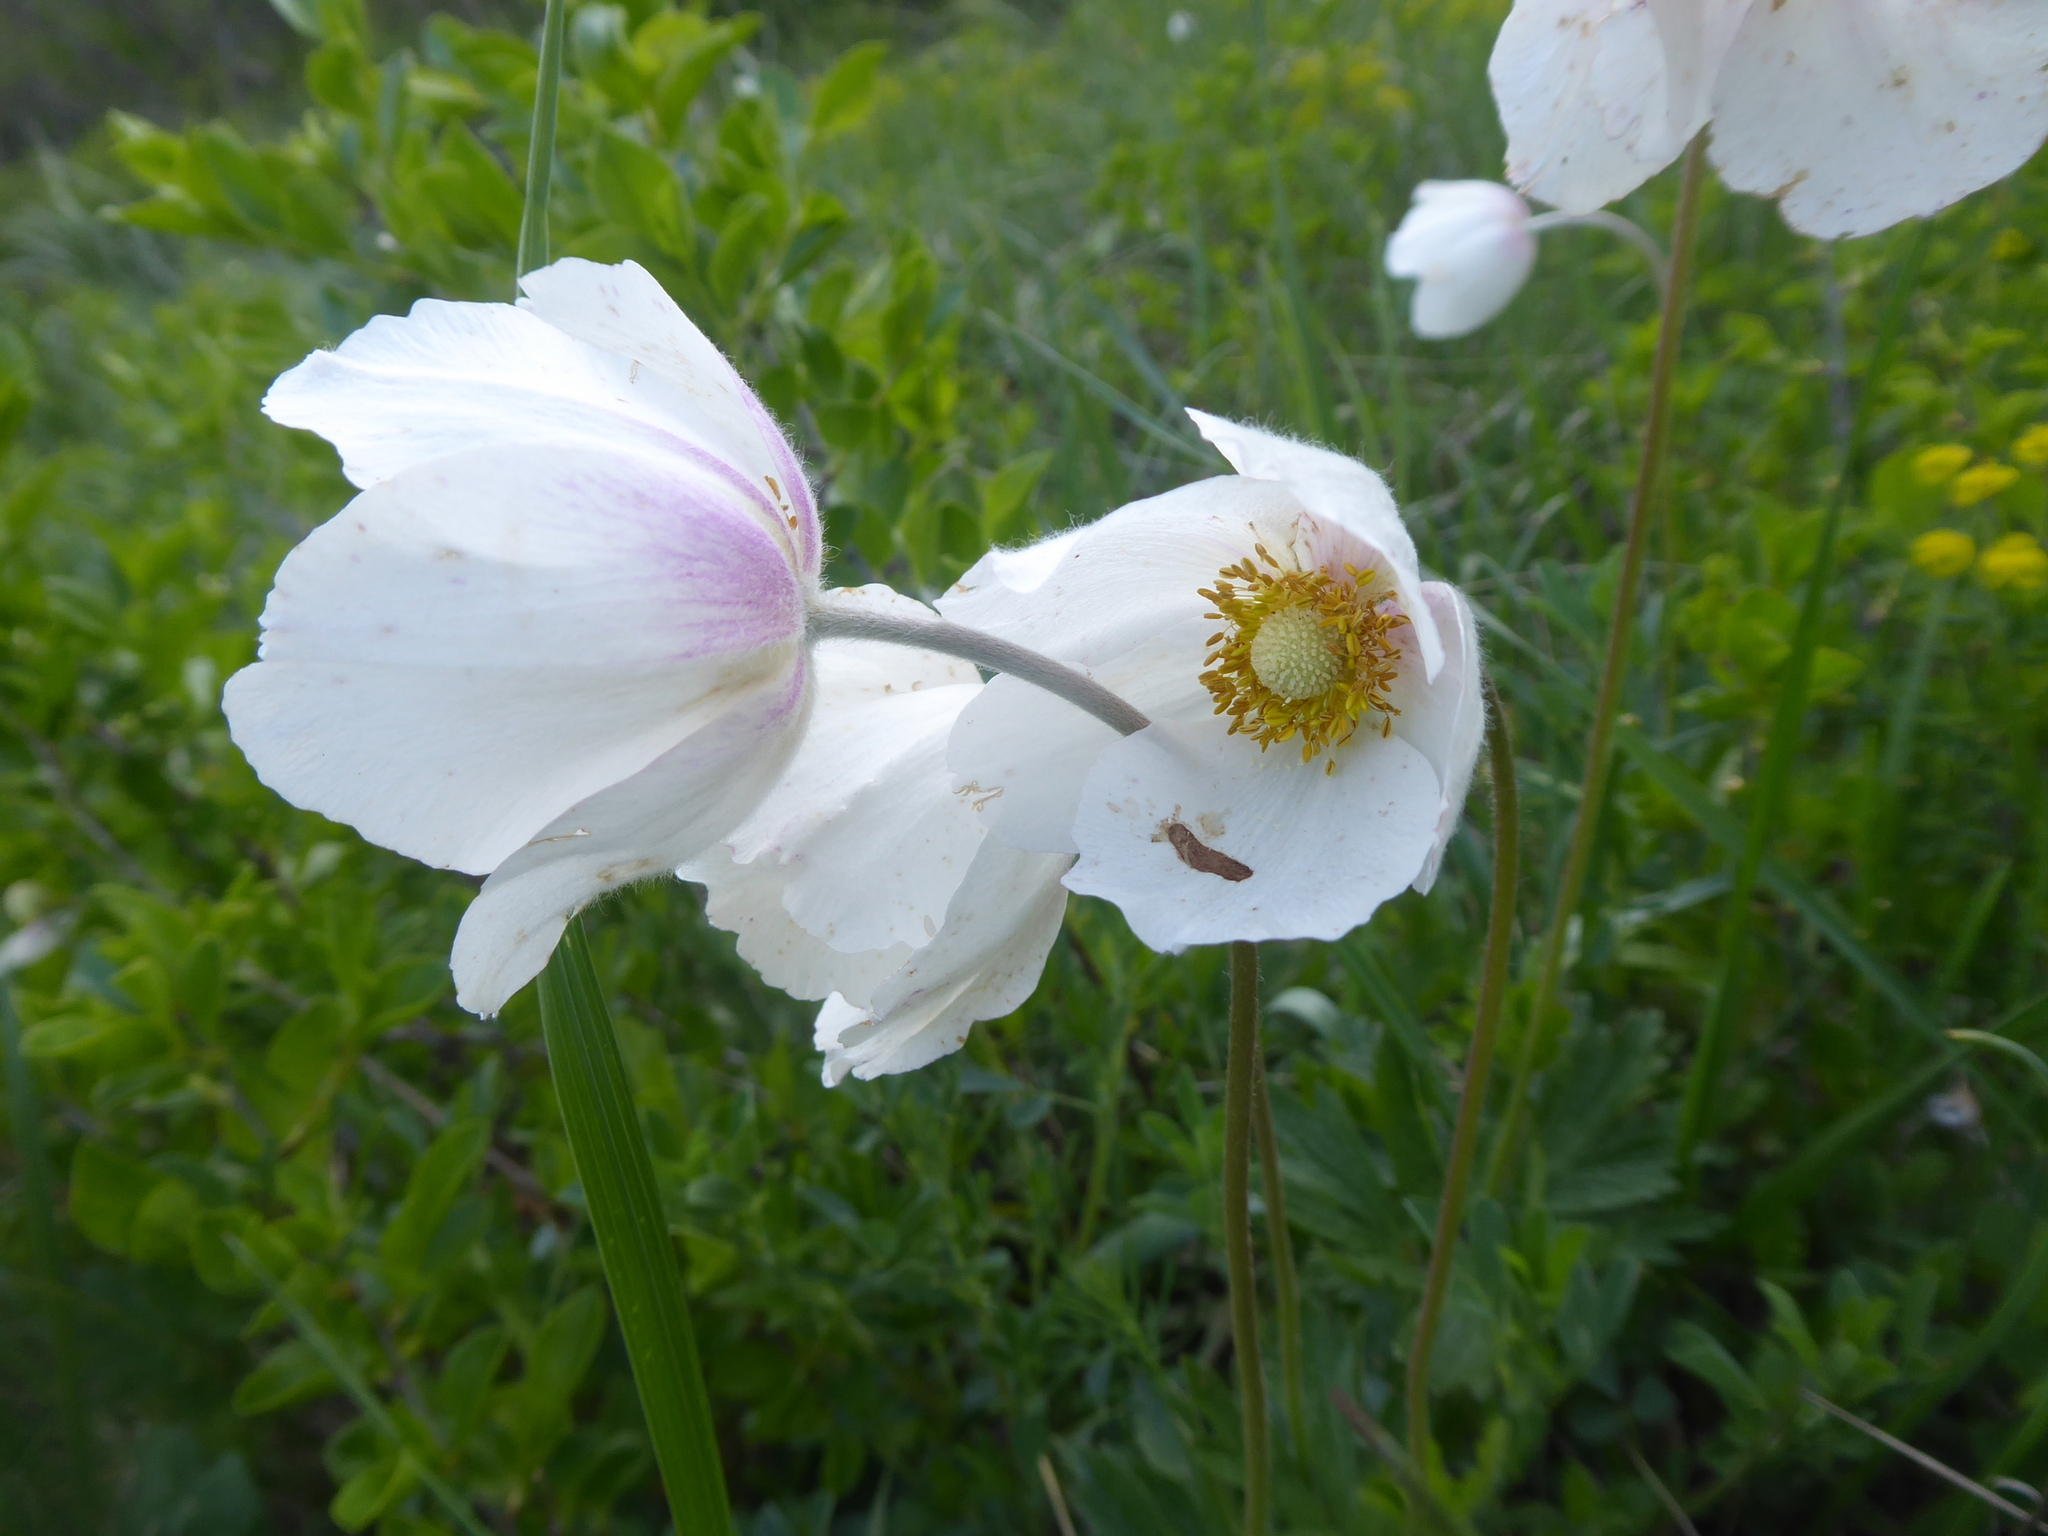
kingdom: Plantae
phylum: Tracheophyta
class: Magnoliopsida
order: Ranunculales
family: Ranunculaceae
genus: Anemone
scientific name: Anemone sylvestris
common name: Snowdrop anemone
